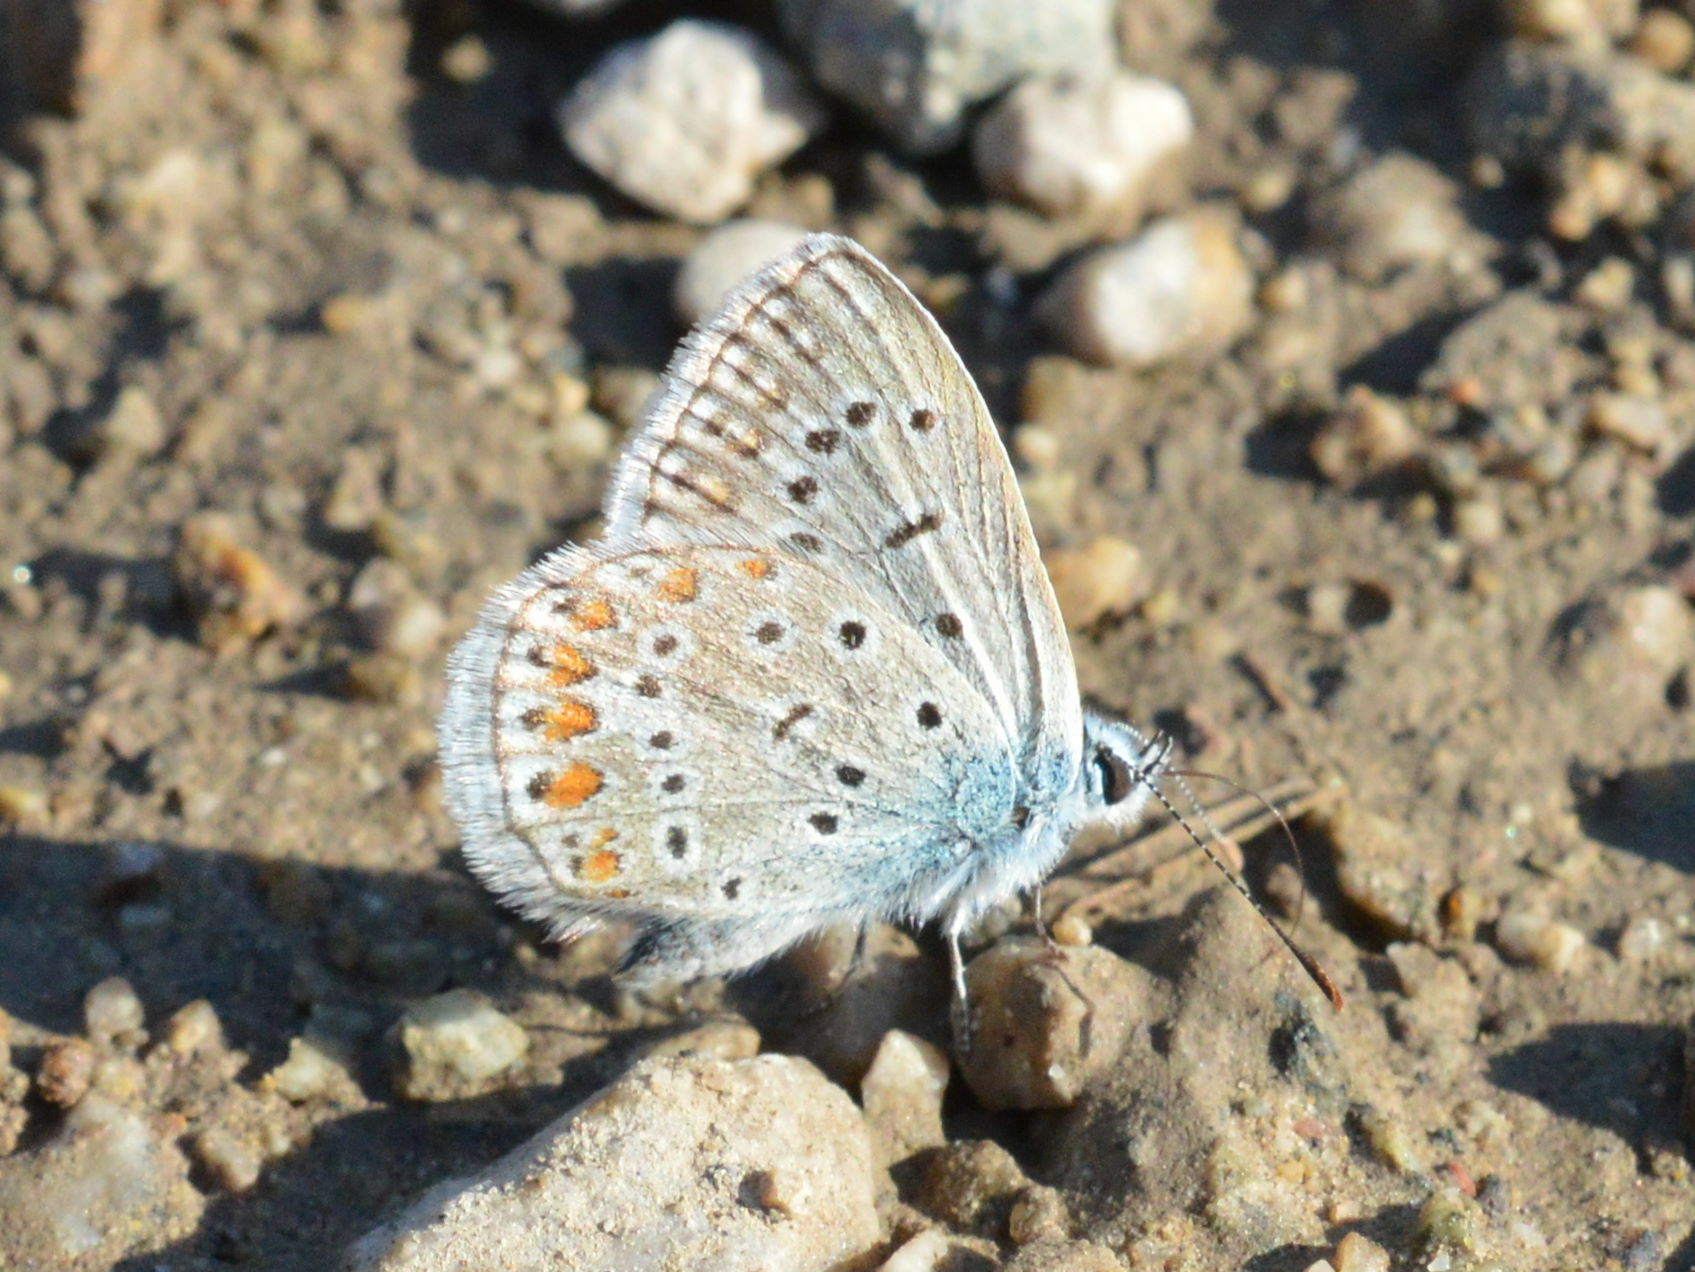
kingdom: Animalia
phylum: Arthropoda
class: Insecta
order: Lepidoptera
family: Lycaenidae
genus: Polyommatus
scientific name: Polyommatus icarus
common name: Common blue
